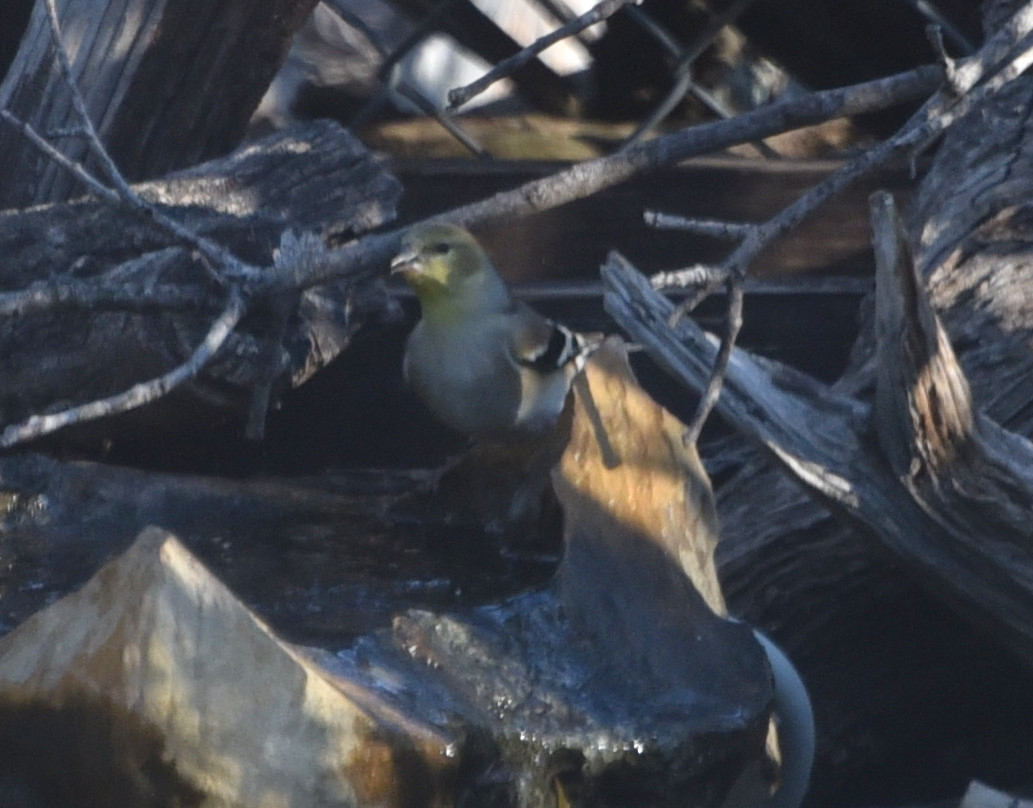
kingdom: Animalia
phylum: Chordata
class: Aves
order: Passeriformes
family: Fringillidae
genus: Spinus
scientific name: Spinus tristis
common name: American goldfinch
